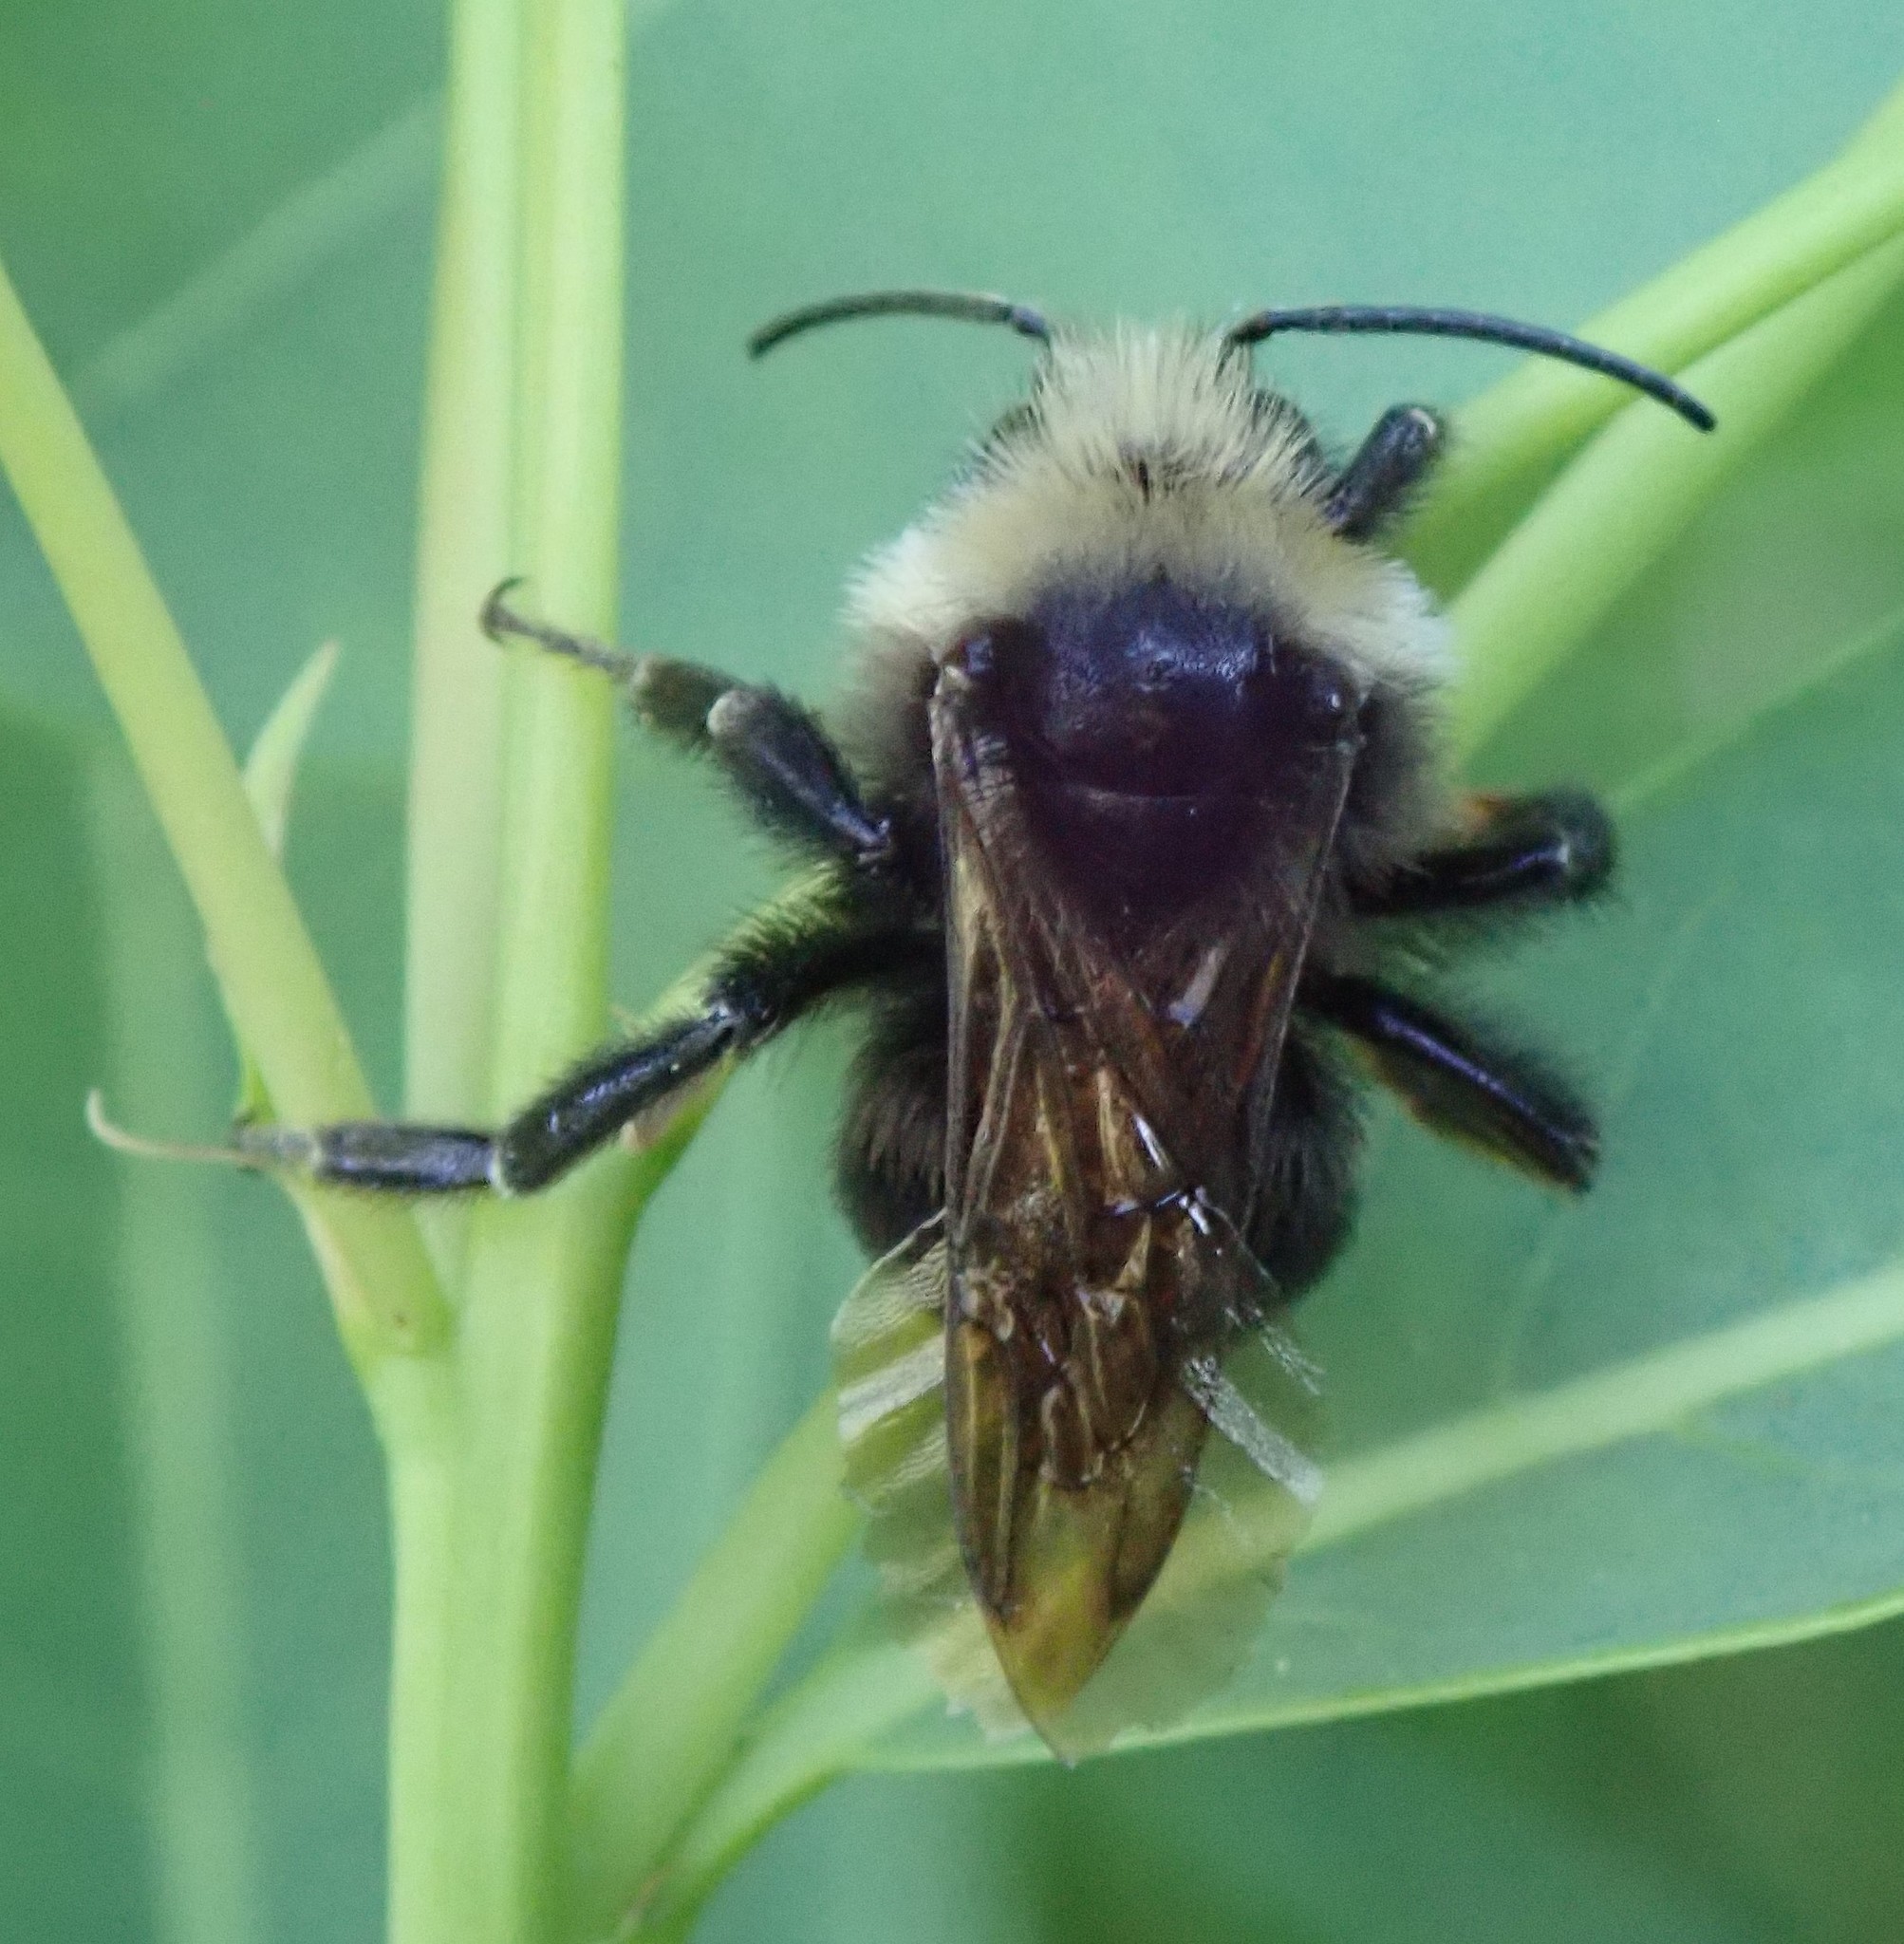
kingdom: Animalia
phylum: Arthropoda
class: Insecta
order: Hymenoptera
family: Apidae
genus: Bombus
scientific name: Bombus insularis
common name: Indiscriminate cuckoo bumble bee
